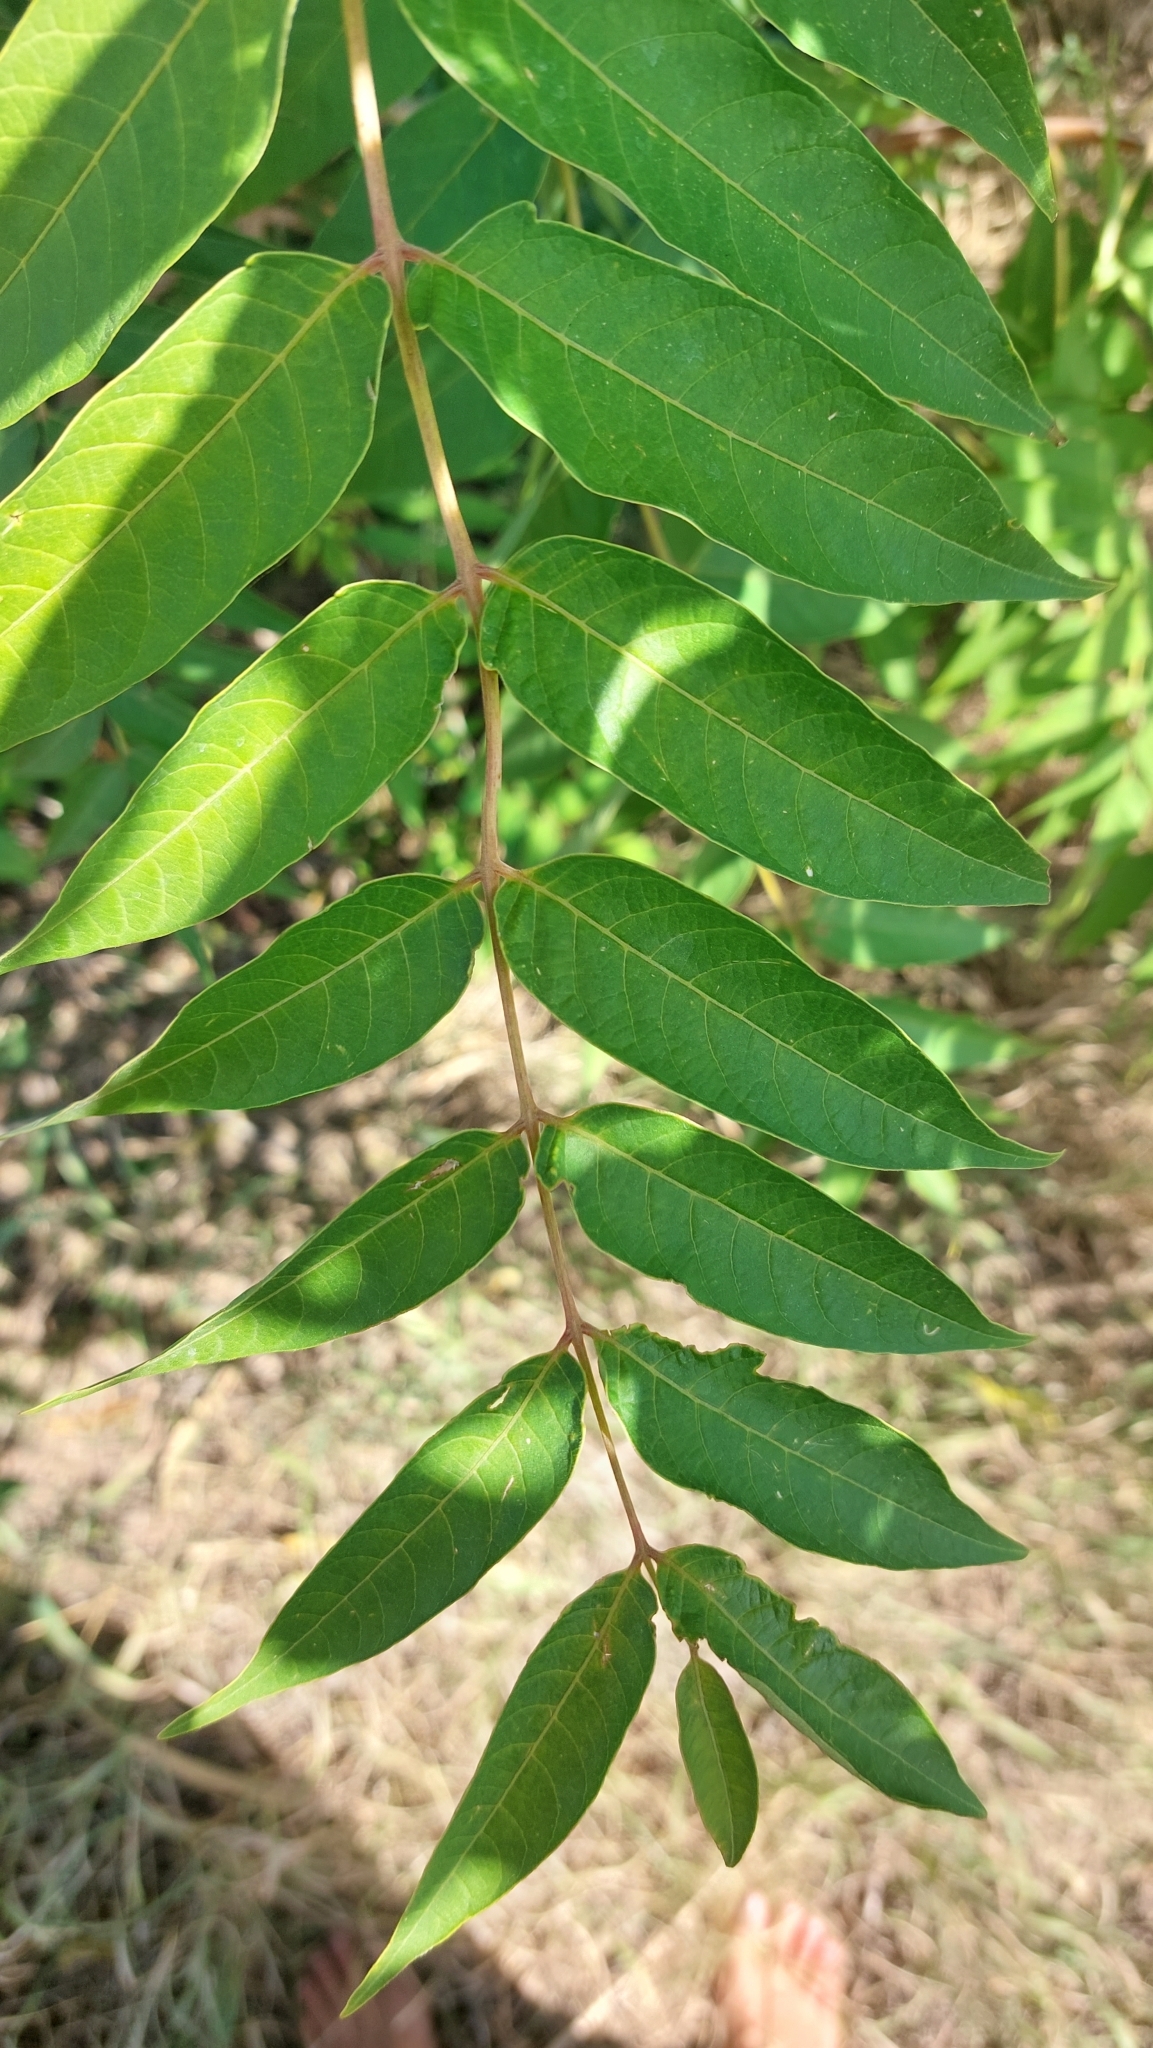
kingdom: Plantae
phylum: Tracheophyta
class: Magnoliopsida
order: Sapindales
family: Simaroubaceae
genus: Ailanthus
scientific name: Ailanthus altissima
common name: Tree-of-heaven
